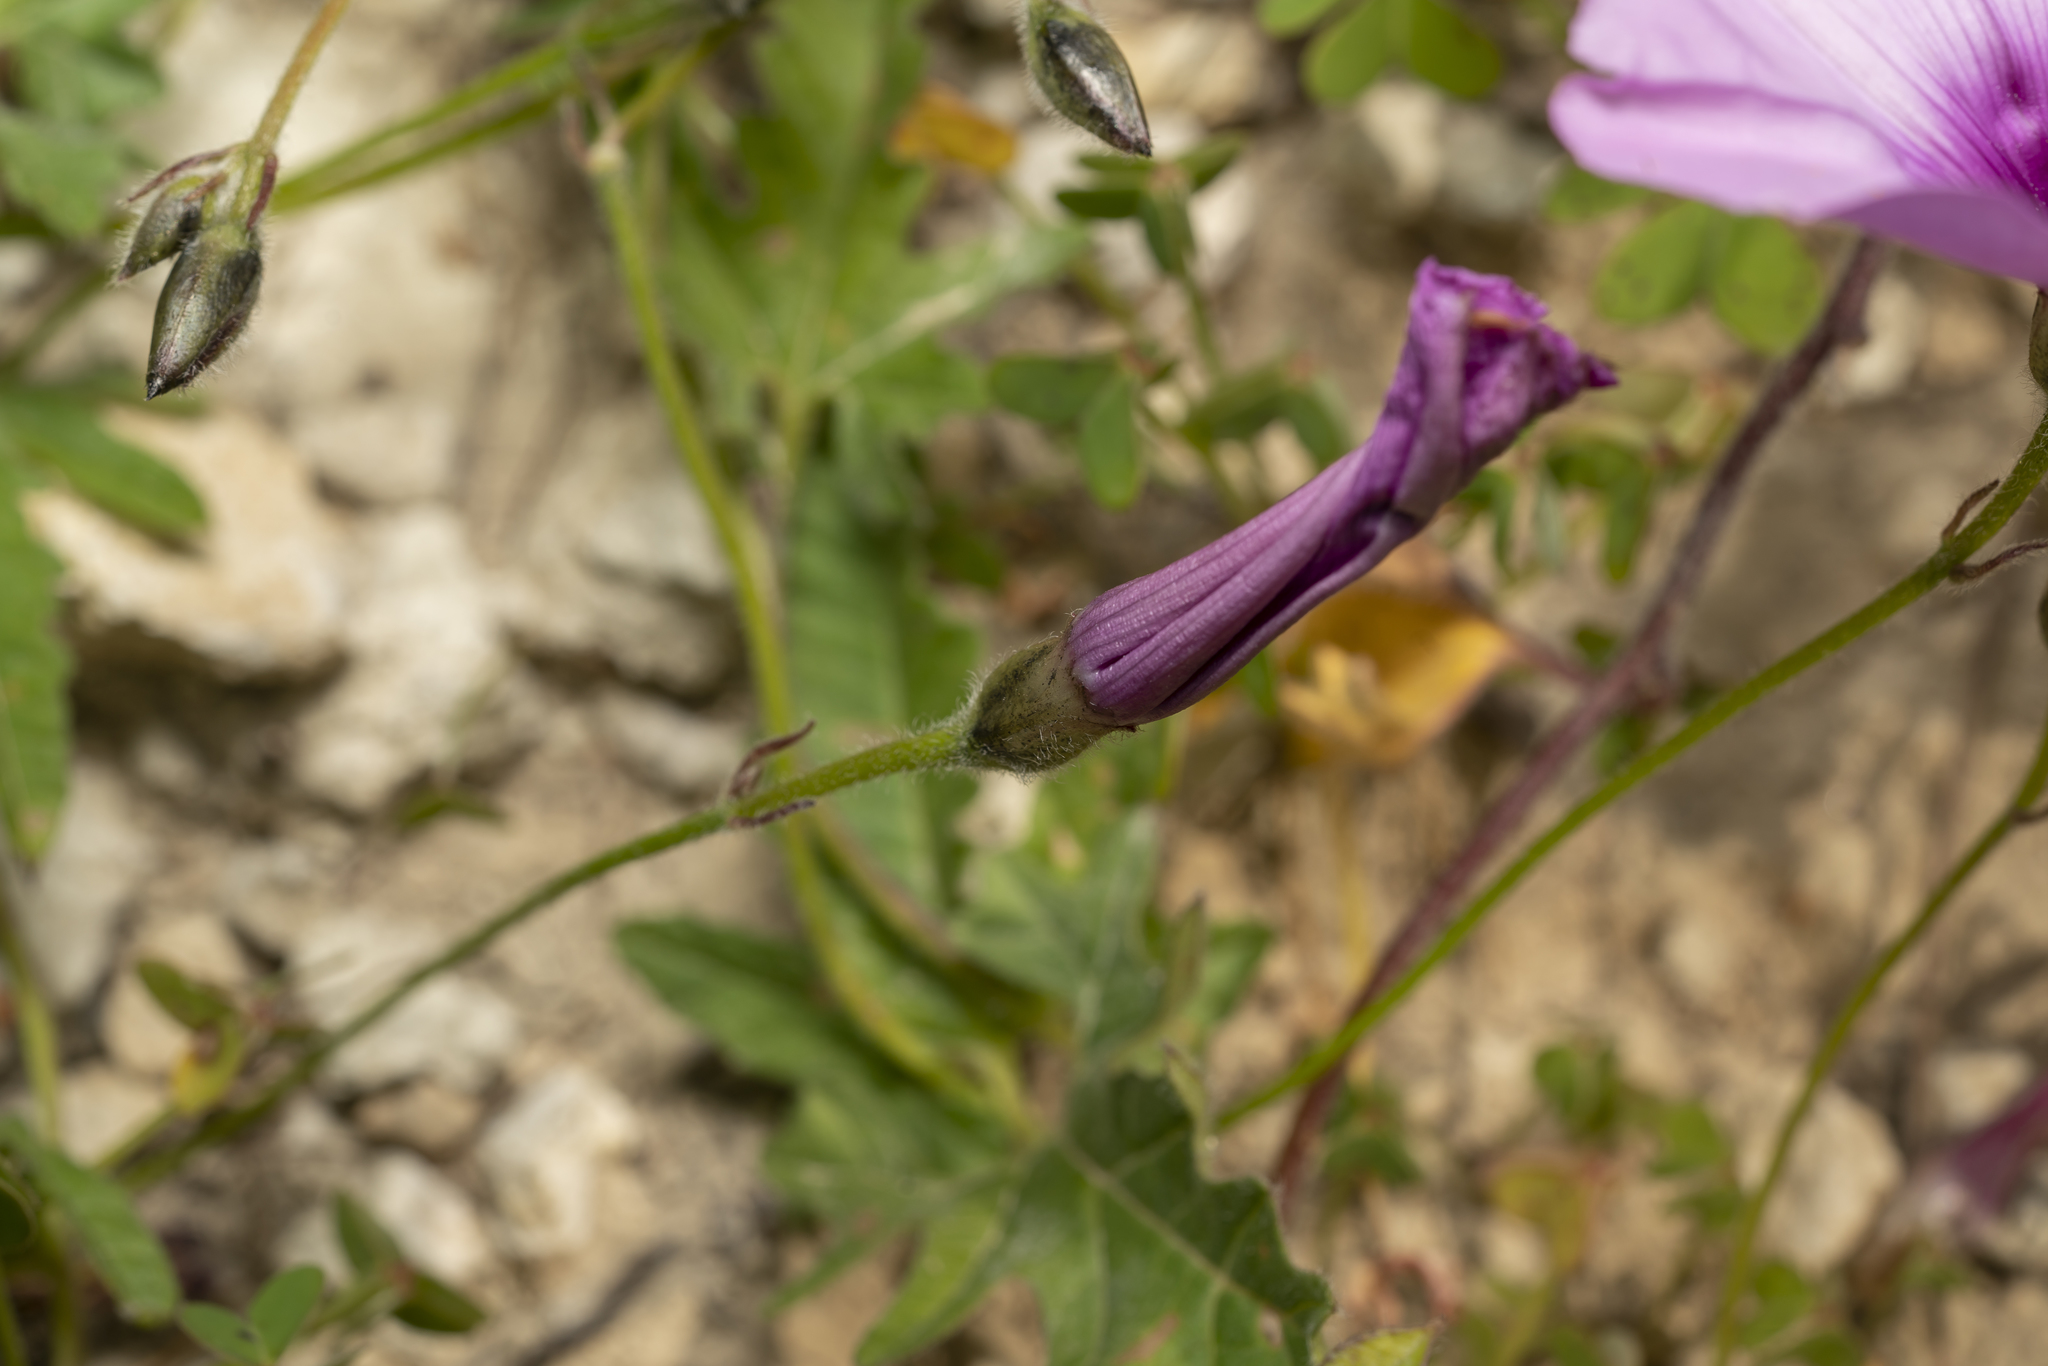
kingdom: Plantae
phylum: Tracheophyta
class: Magnoliopsida
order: Solanales
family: Convolvulaceae
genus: Convolvulus
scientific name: Convolvulus althaeoides
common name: Mallow bindweed
